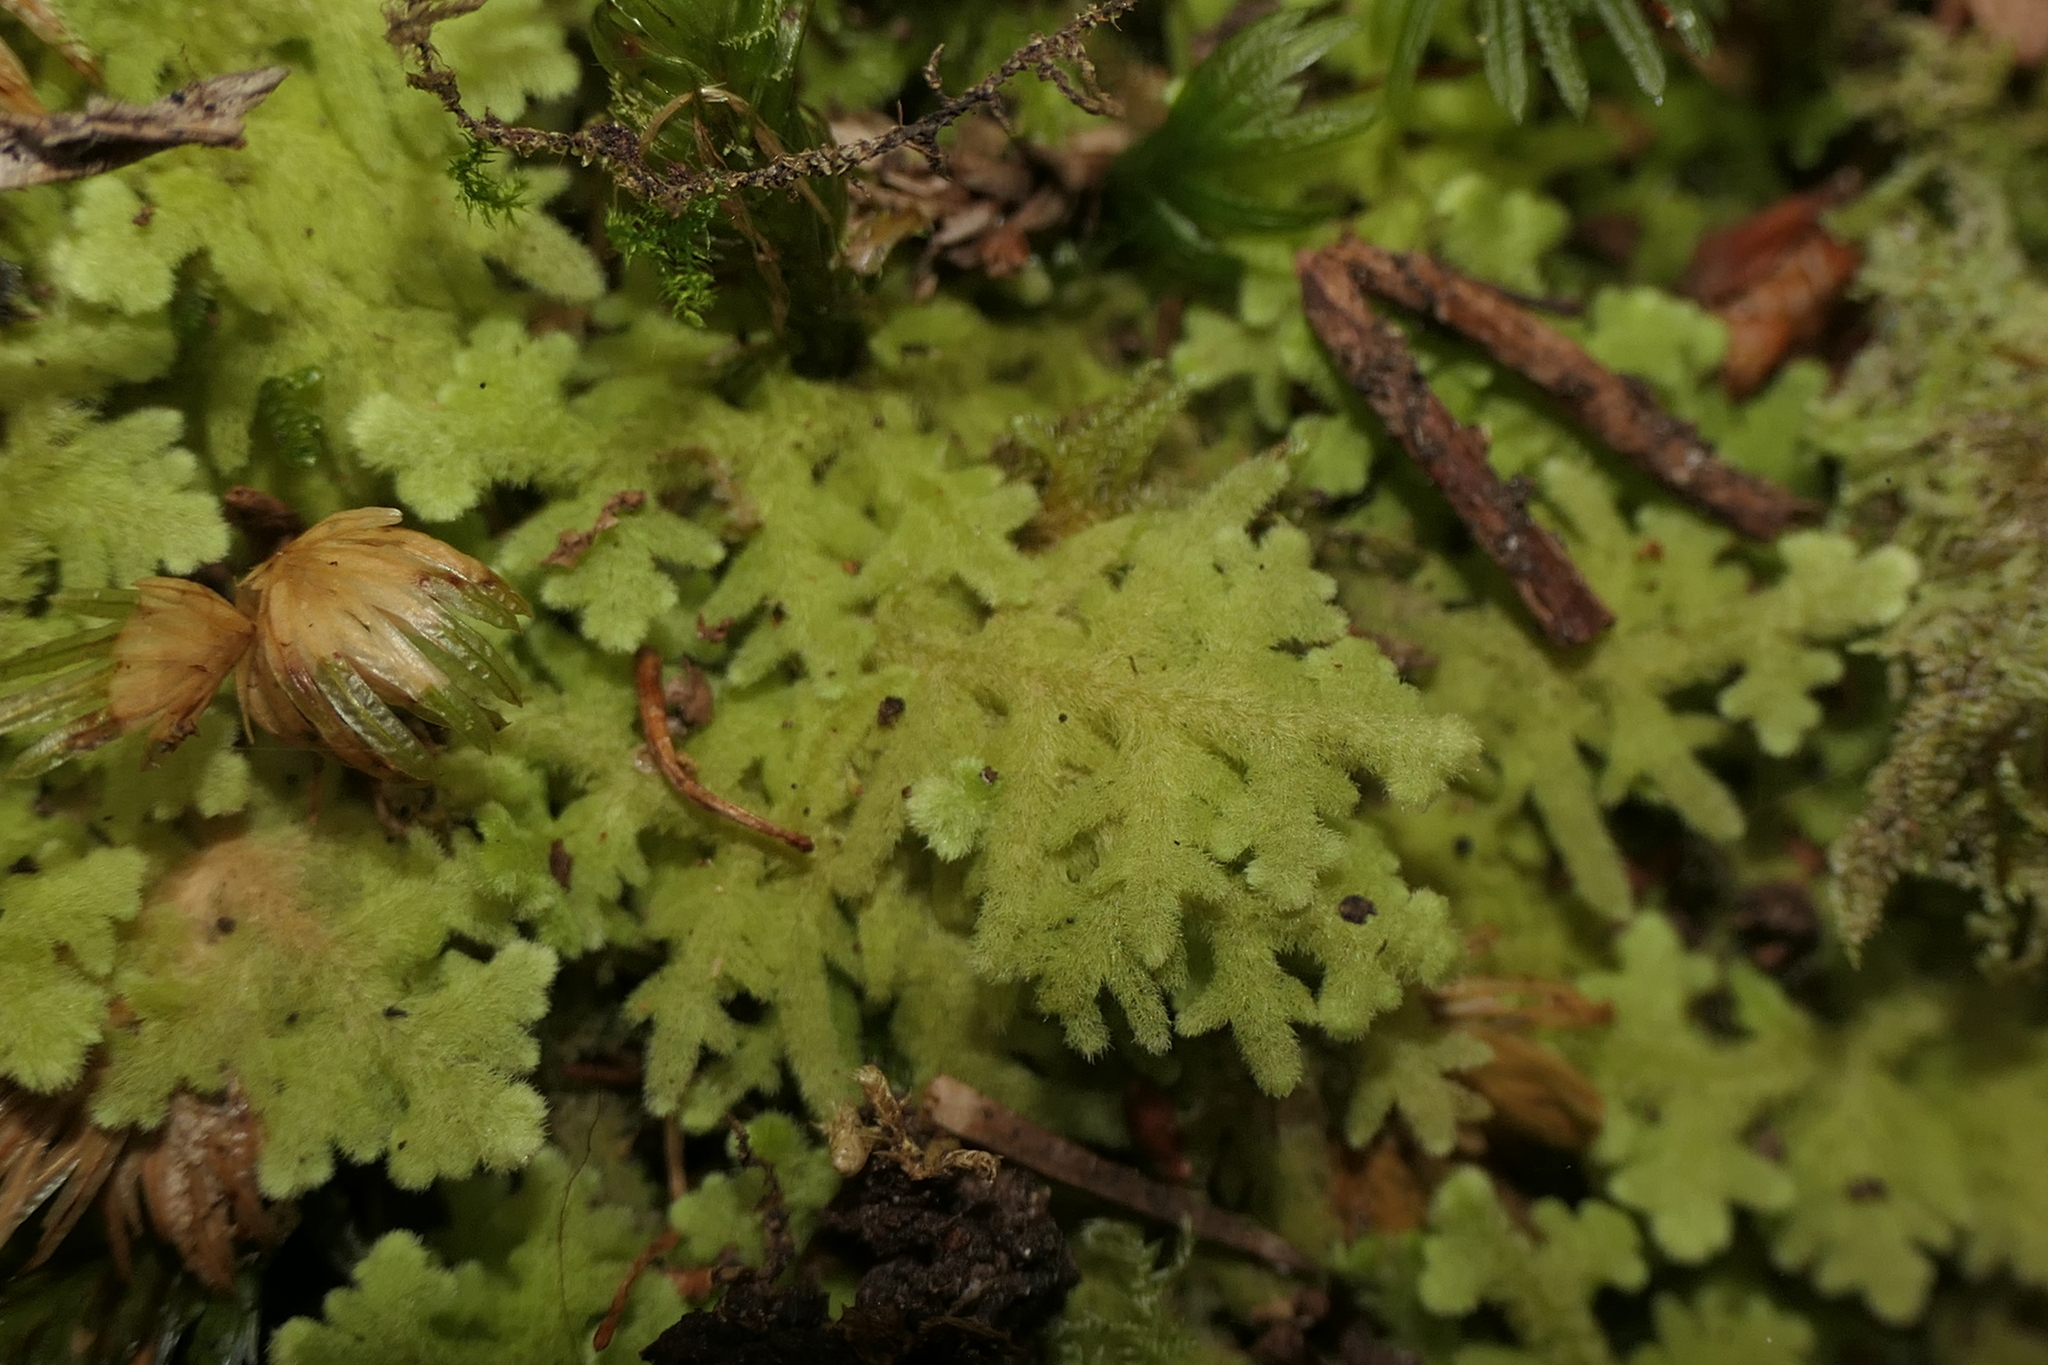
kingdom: Plantae
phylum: Marchantiophyta
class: Jungermanniopsida
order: Jungermanniales
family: Trichocoleaceae
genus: Trichocolea
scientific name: Trichocolea tomentella
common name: Woolly liverwort
